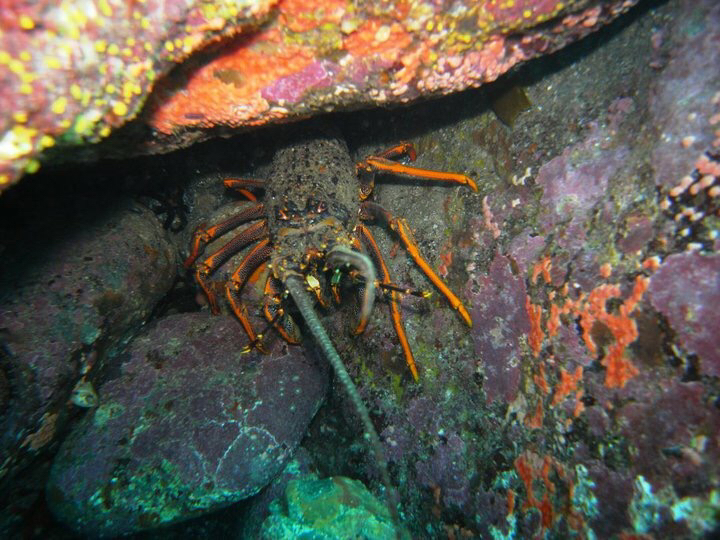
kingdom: Animalia
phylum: Arthropoda
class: Malacostraca
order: Decapoda
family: Palinuridae
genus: Jasus
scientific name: Jasus edwardsii
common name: Red rock lobster
